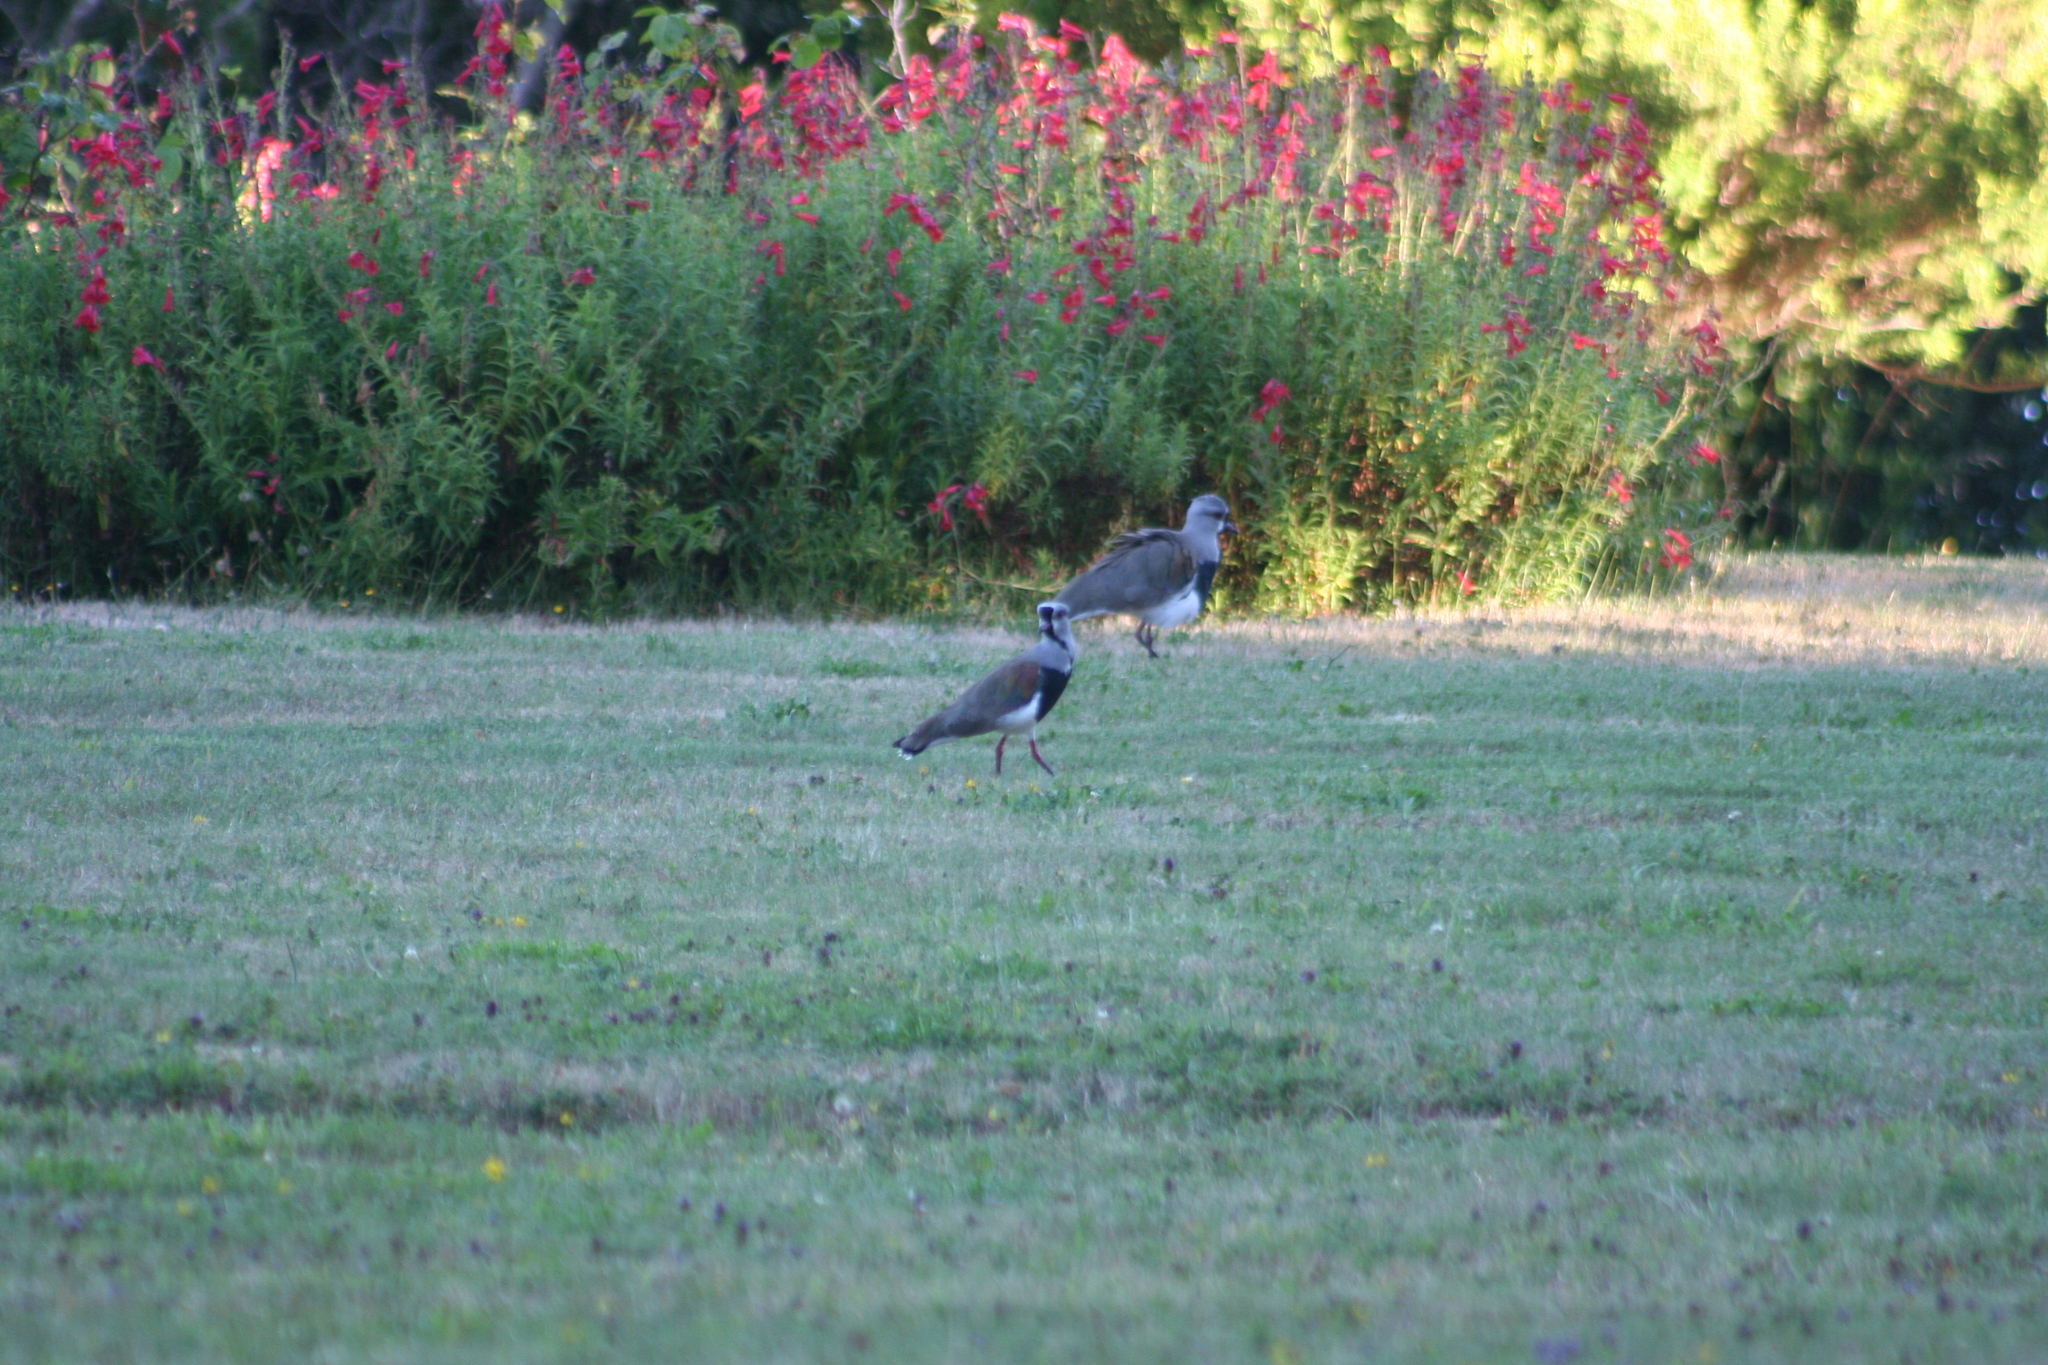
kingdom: Animalia
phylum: Chordata
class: Aves
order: Charadriiformes
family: Charadriidae
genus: Vanellus
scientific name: Vanellus chilensis
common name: Southern lapwing
